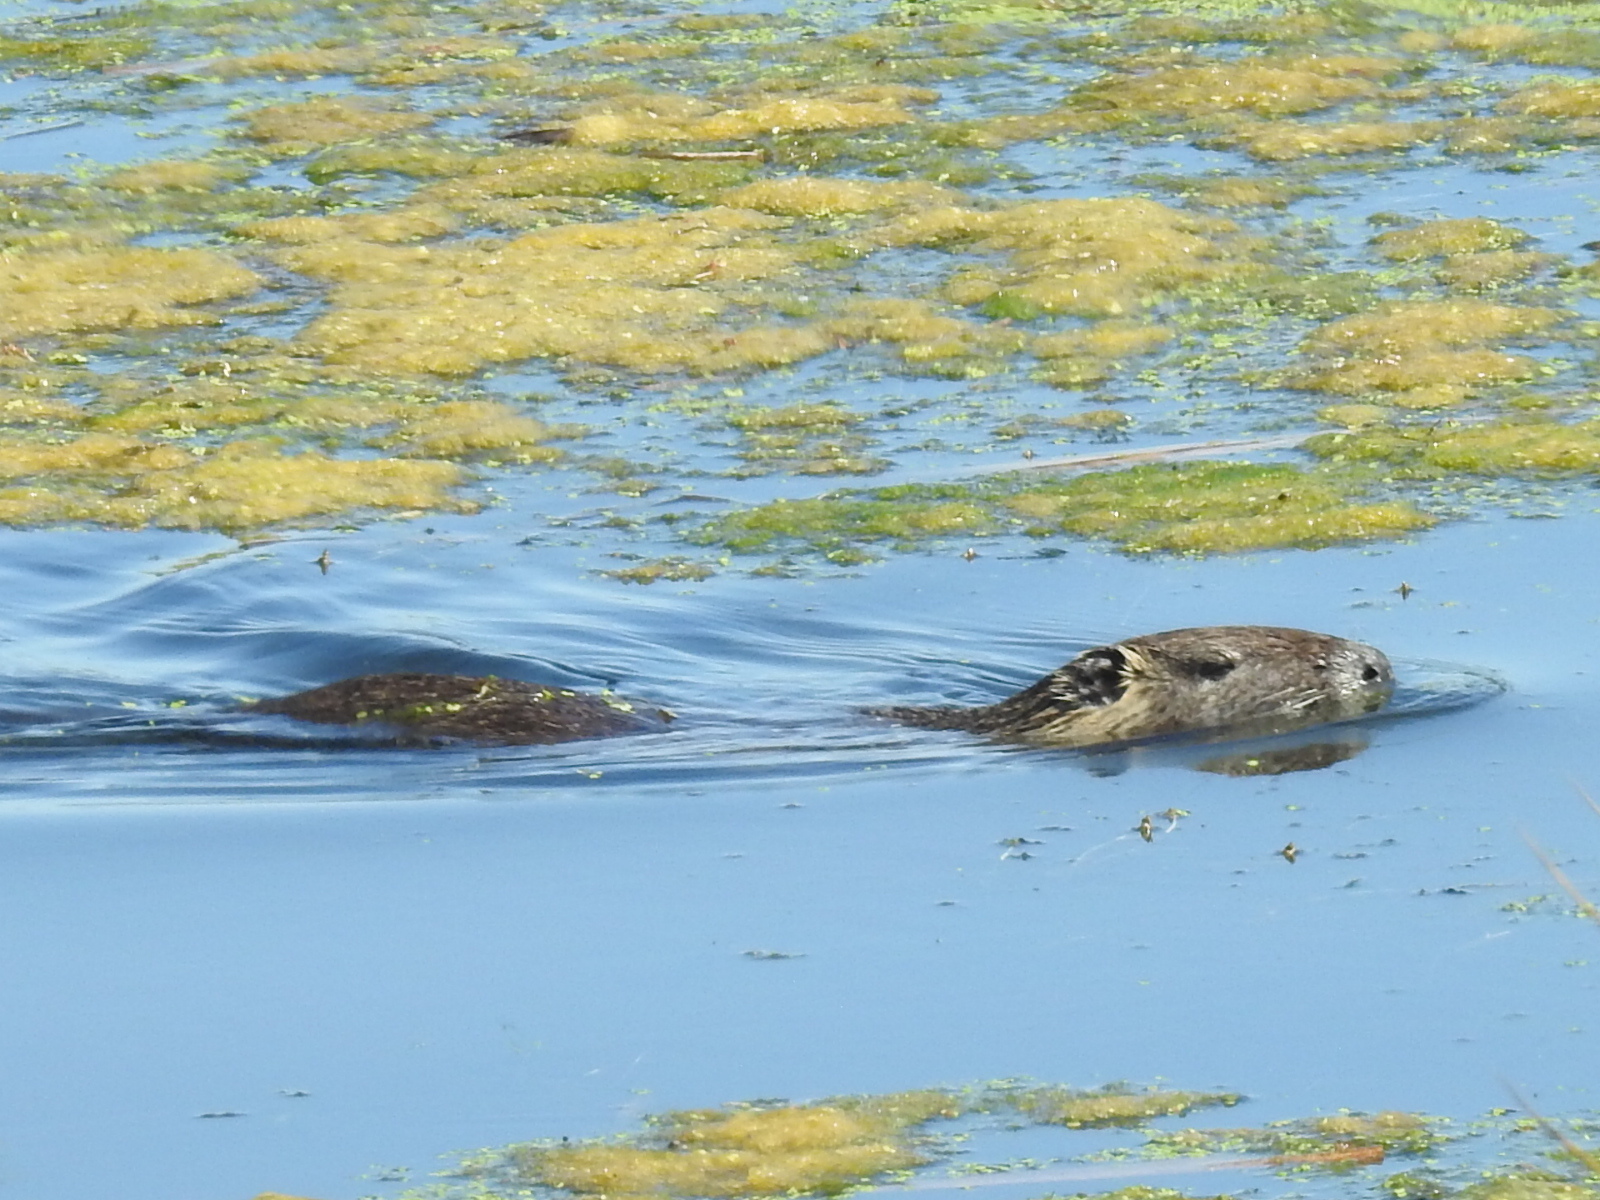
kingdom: Animalia
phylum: Chordata
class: Mammalia
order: Rodentia
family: Myocastoridae
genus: Myocastor
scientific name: Myocastor coypus
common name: Coypu
